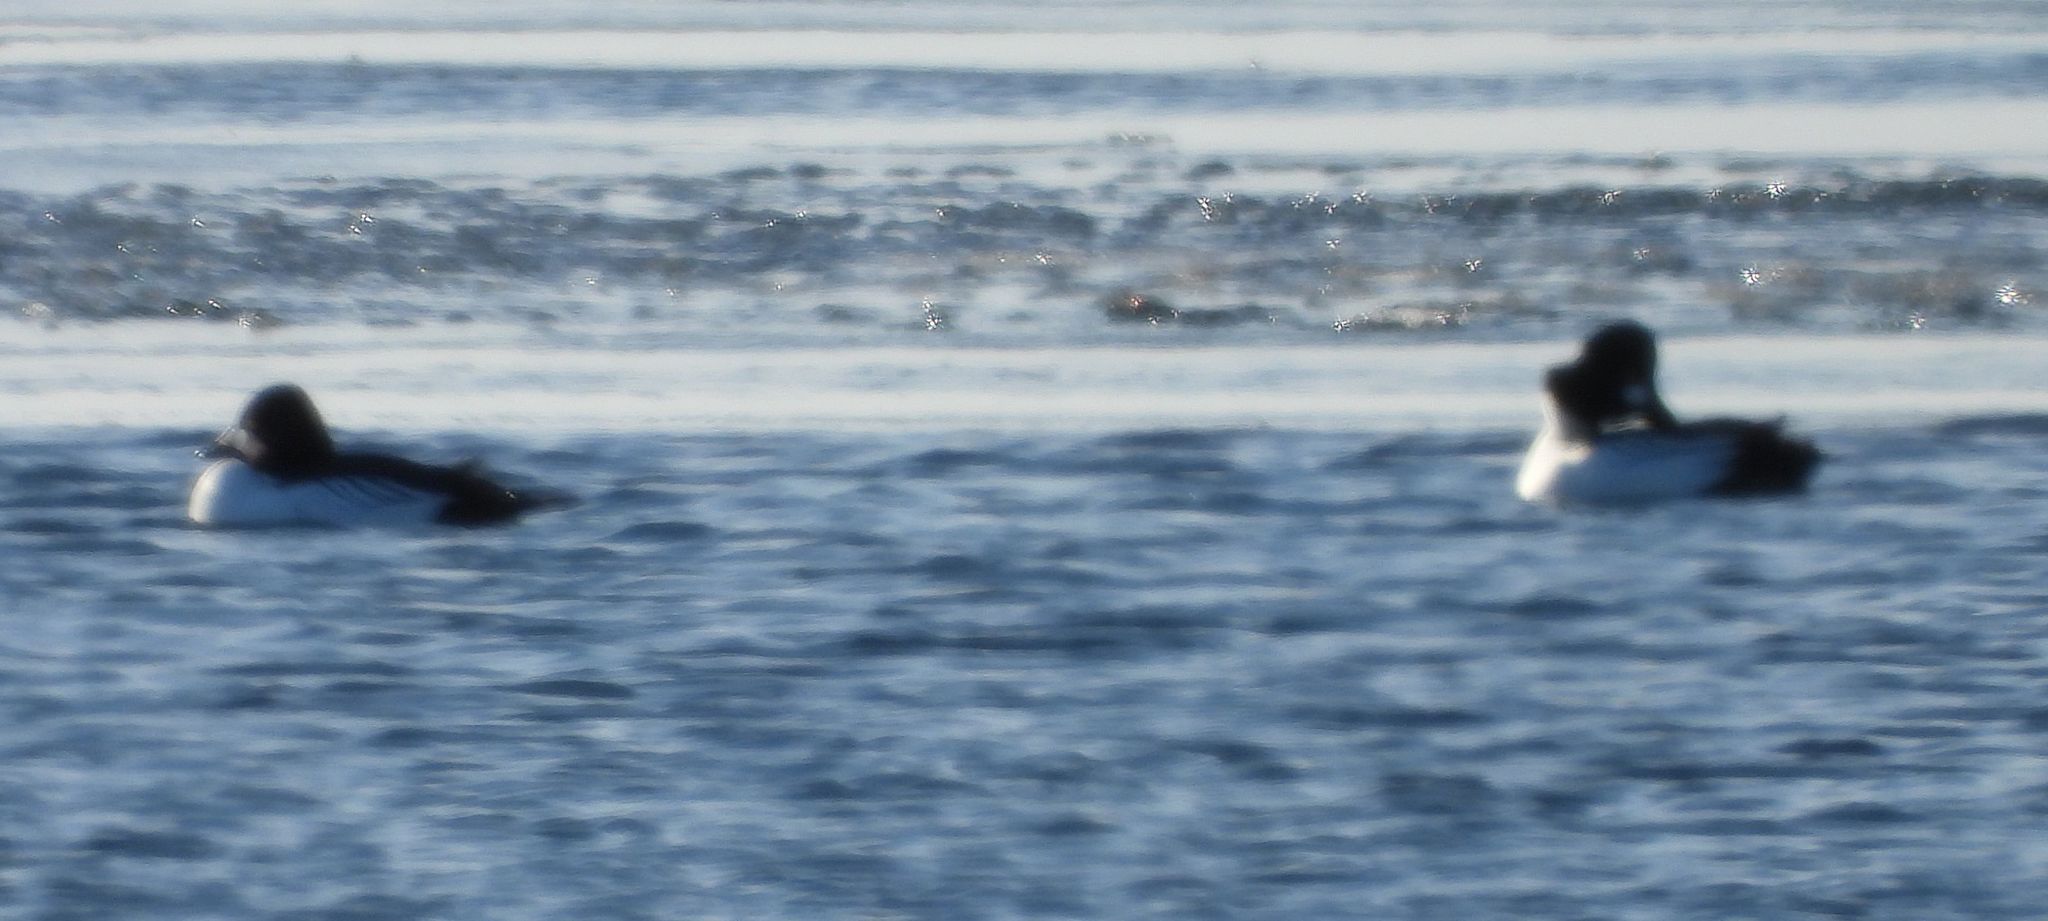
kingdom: Animalia
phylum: Chordata
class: Aves
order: Anseriformes
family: Anatidae
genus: Bucephala
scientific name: Bucephala clangula
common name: Common goldeneye
